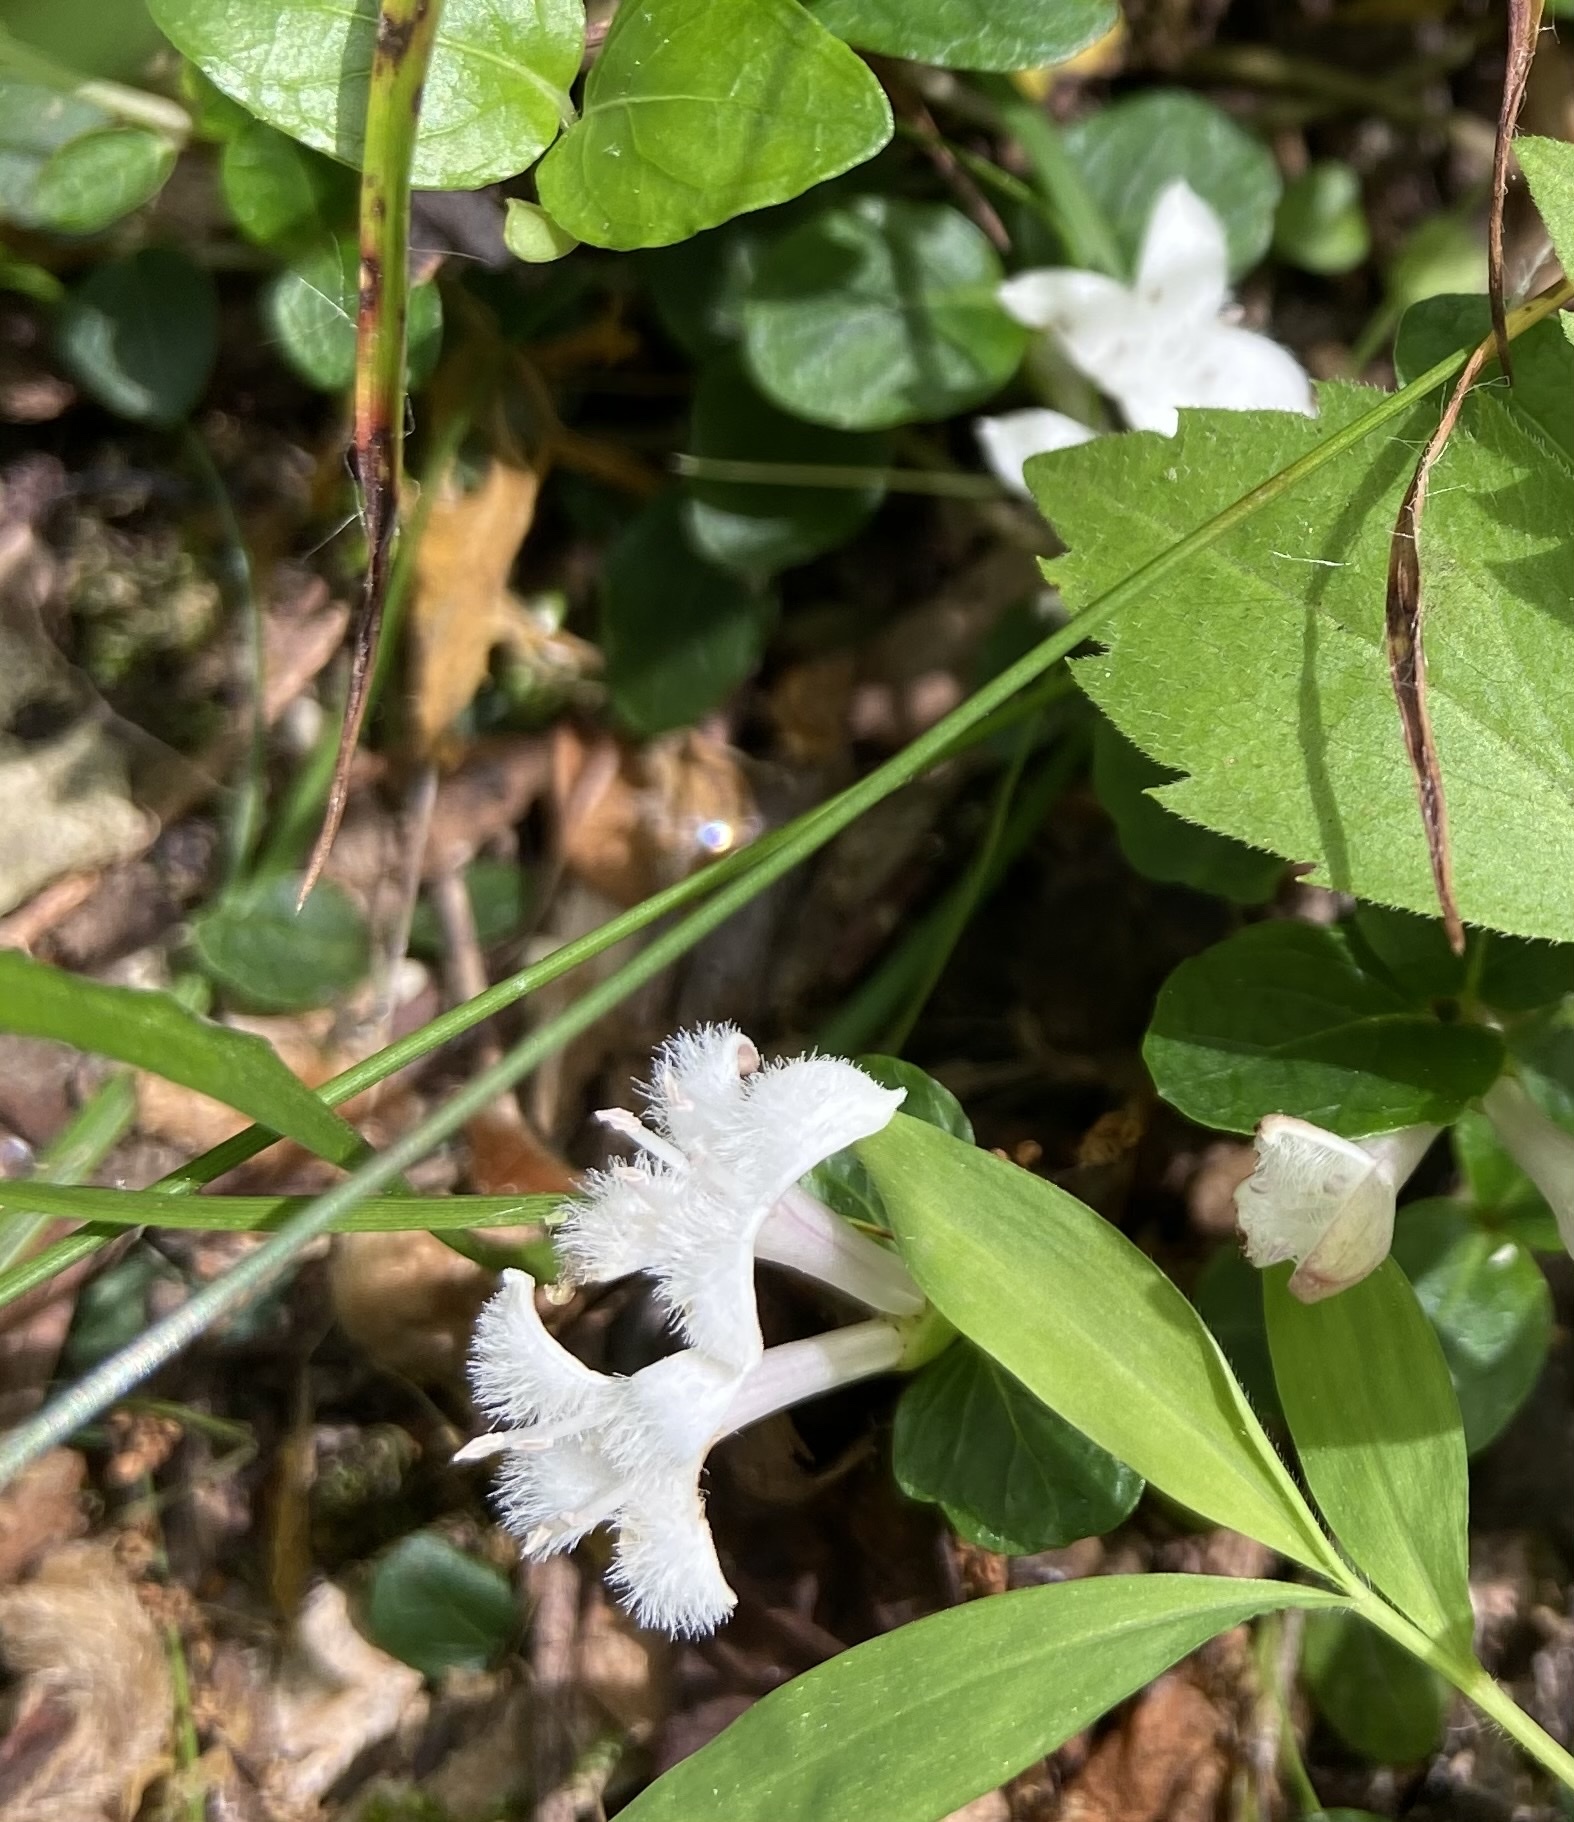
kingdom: Plantae
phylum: Tracheophyta
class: Magnoliopsida
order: Gentianales
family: Rubiaceae
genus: Mitchella
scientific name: Mitchella repens
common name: Partridge-berry
